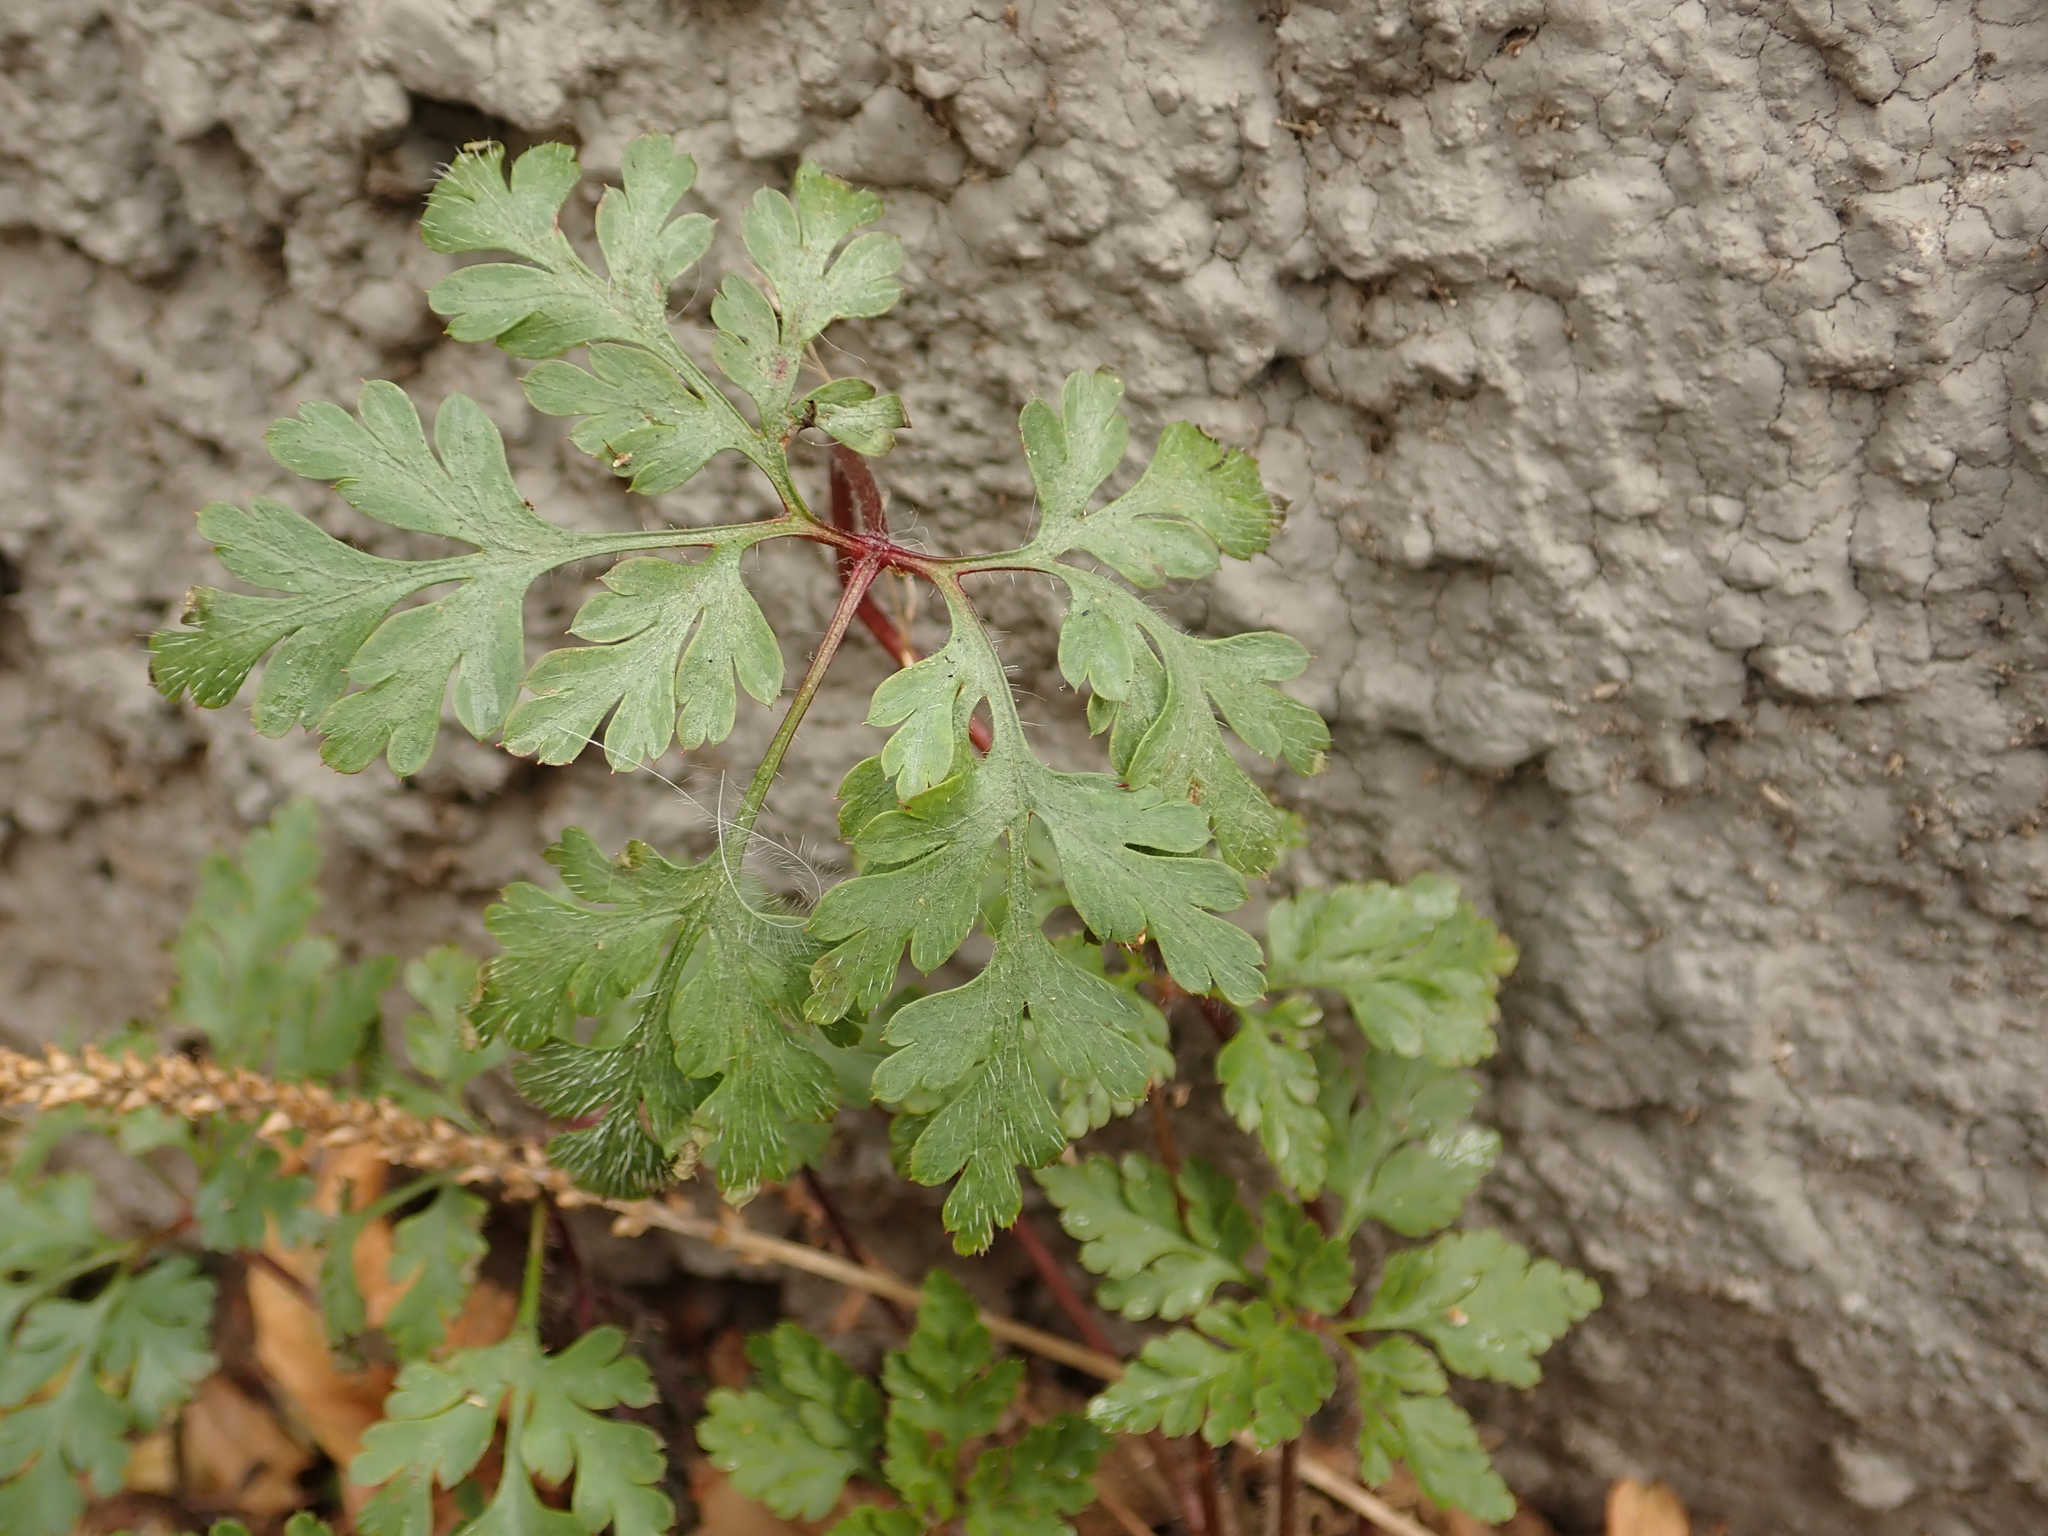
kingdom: Plantae
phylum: Tracheophyta
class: Magnoliopsida
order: Geraniales
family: Geraniaceae
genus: Geranium
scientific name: Geranium robertianum
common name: Herb-robert
